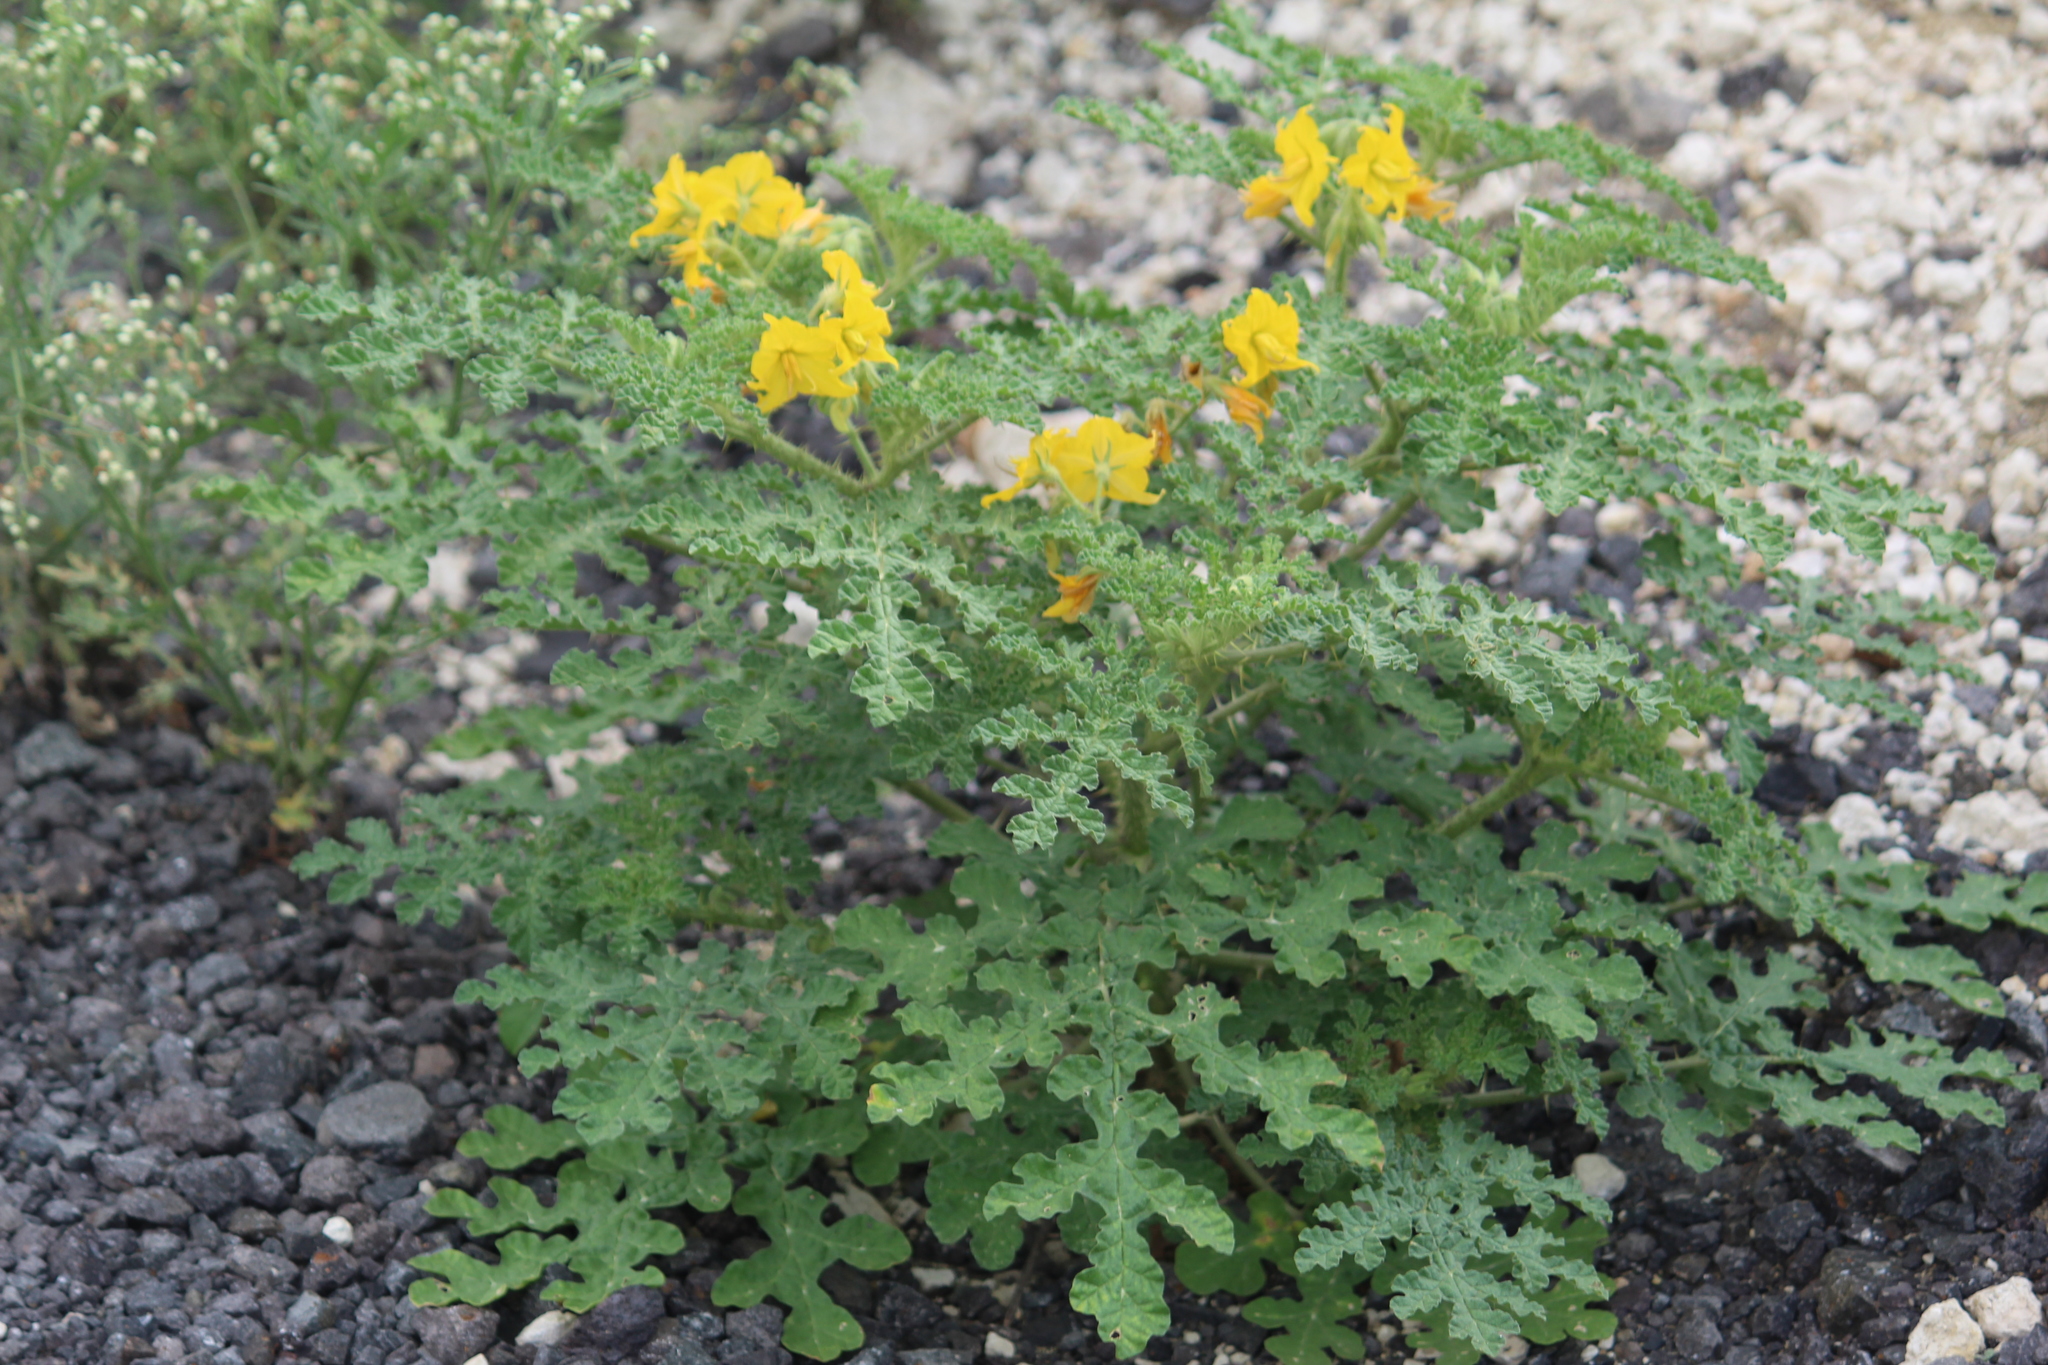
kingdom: Plantae
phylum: Tracheophyta
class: Magnoliopsida
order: Solanales
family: Solanaceae
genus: Solanum
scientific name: Solanum angustifolium
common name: Buffalobur nightshade
